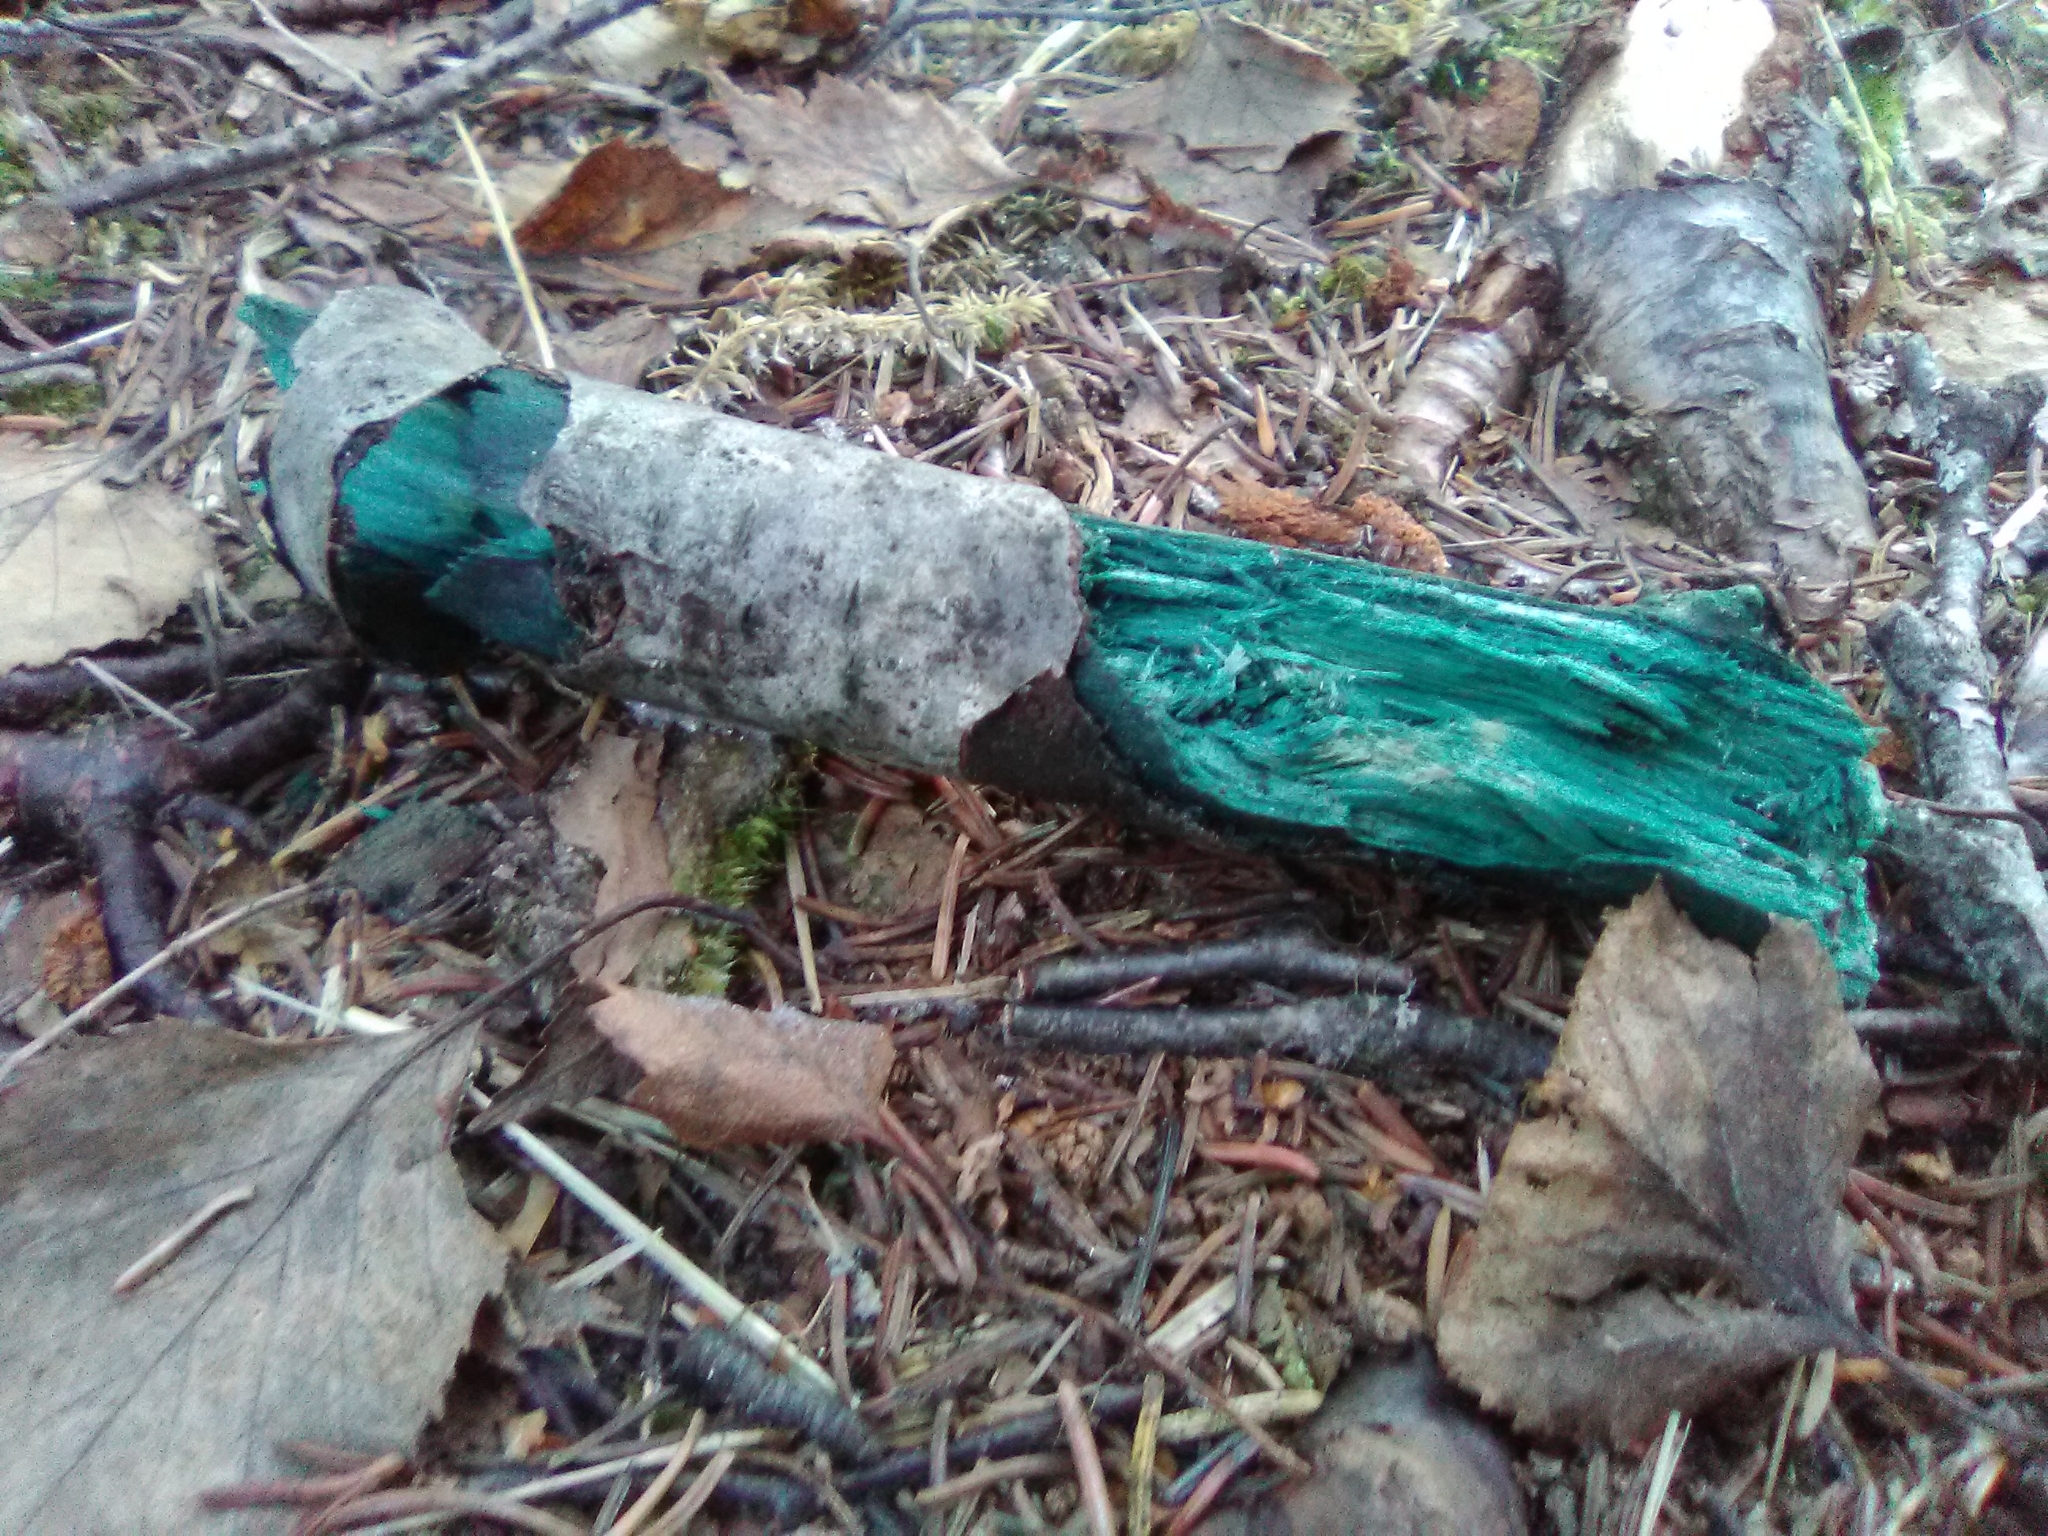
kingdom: Fungi
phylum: Ascomycota
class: Leotiomycetes
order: Helotiales
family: Chlorociboriaceae
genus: Chlorociboria
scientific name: Chlorociboria
